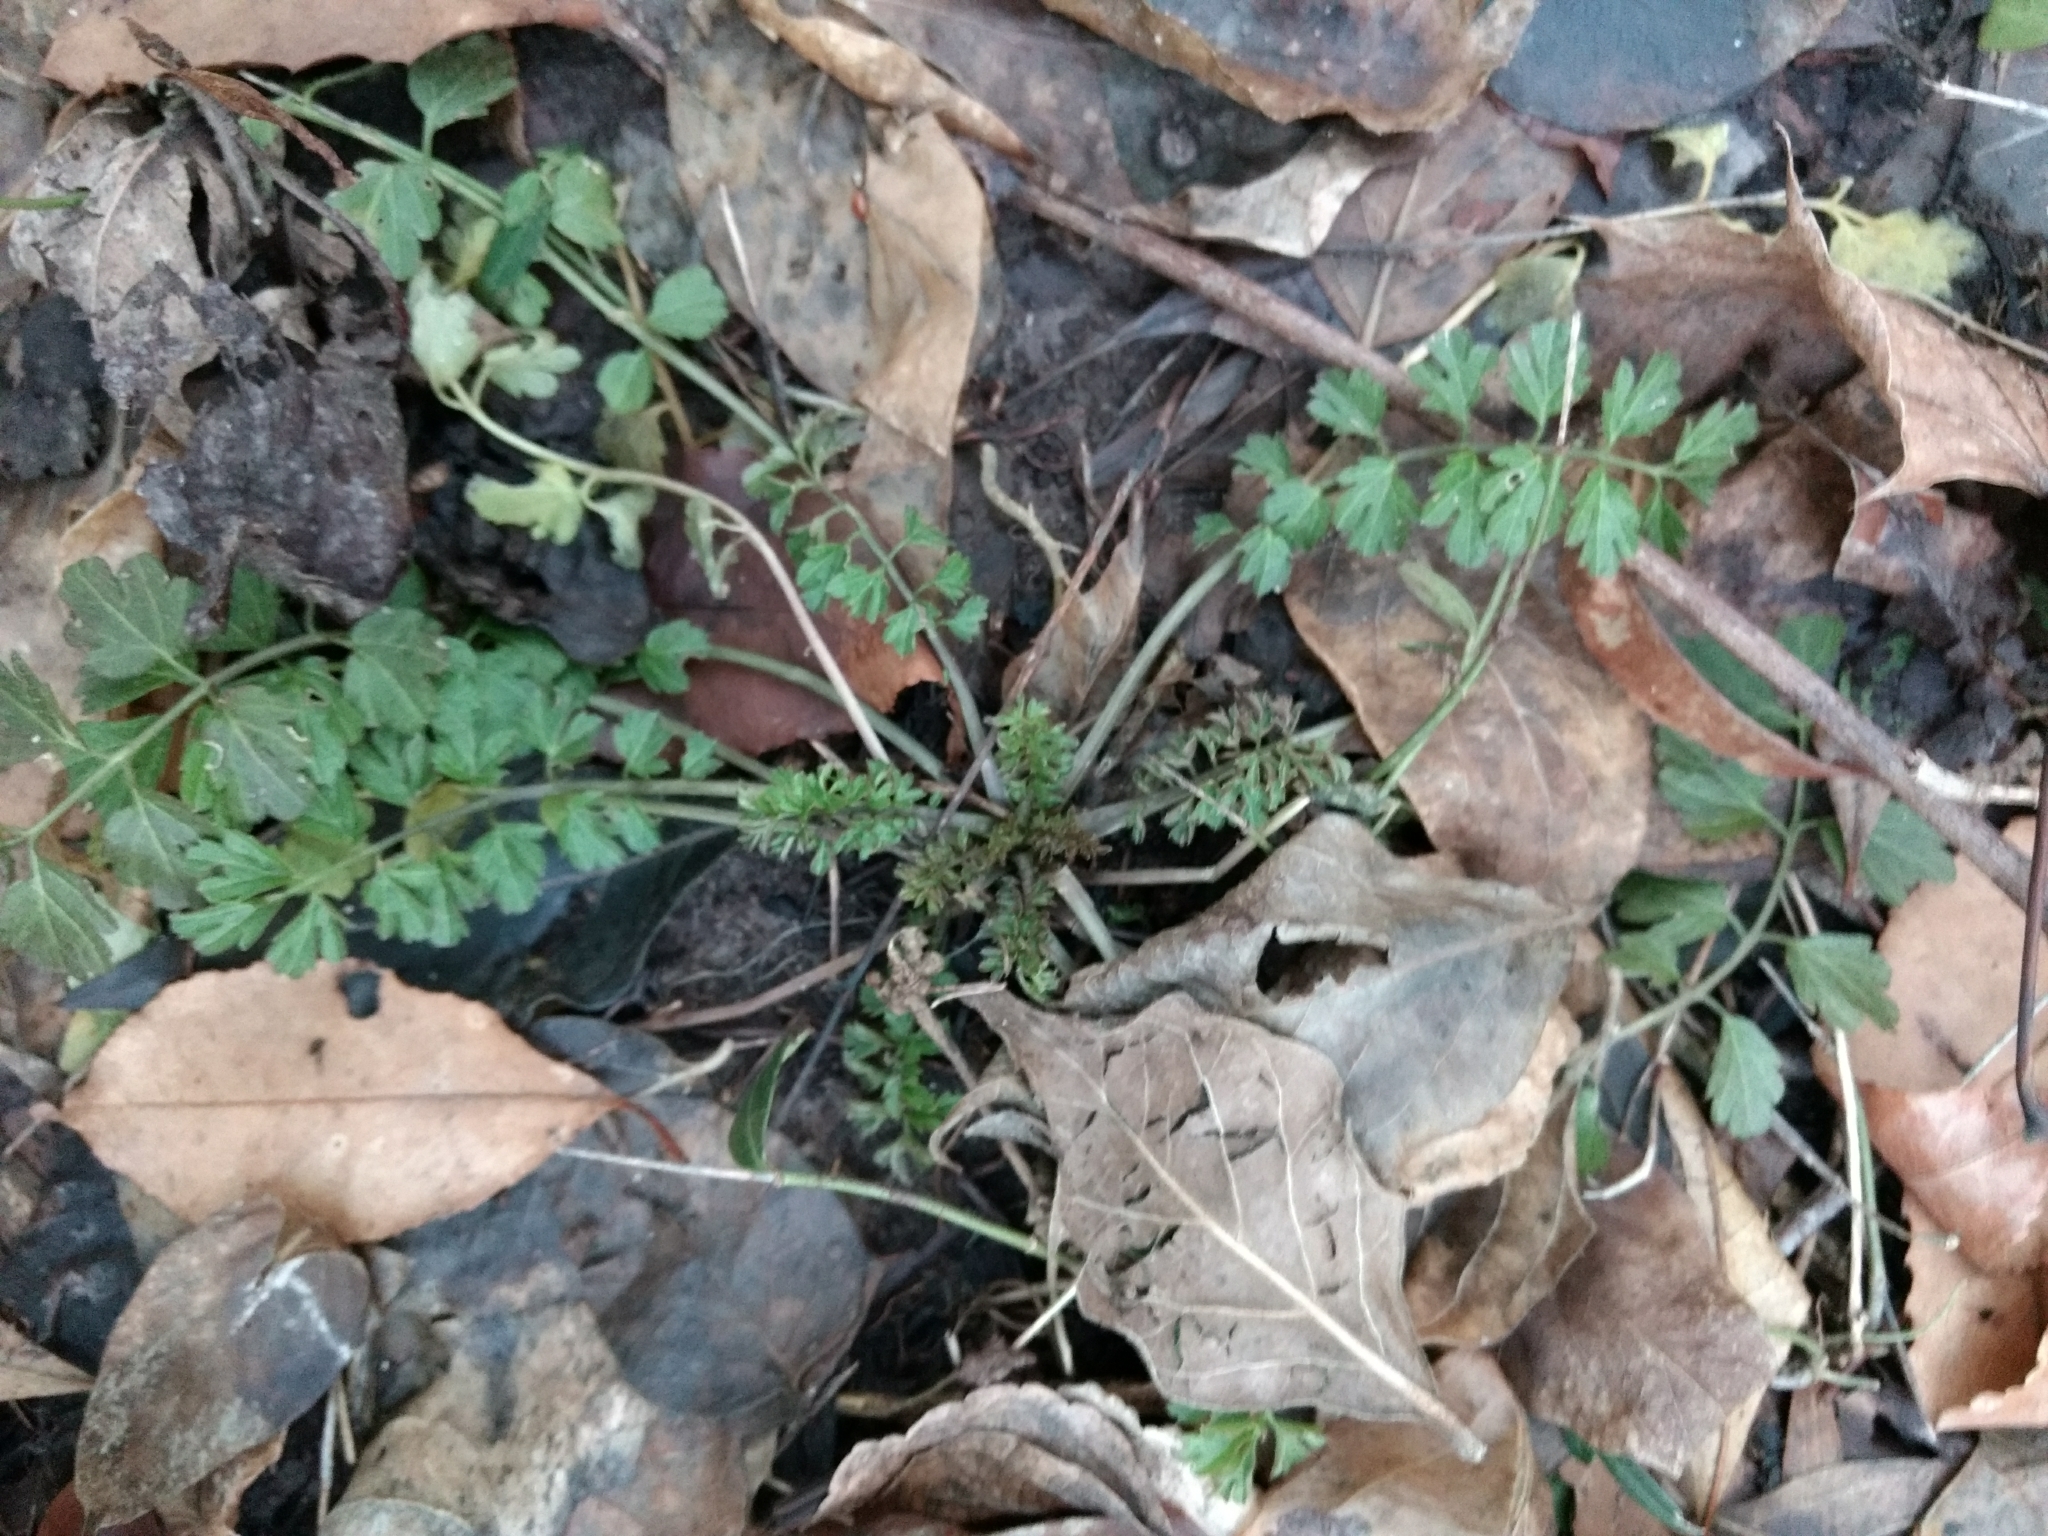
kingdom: Plantae
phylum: Tracheophyta
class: Magnoliopsida
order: Brassicales
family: Brassicaceae
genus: Cardamine
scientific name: Cardamine impatiens
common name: Narrow-leaved bitter-cress
